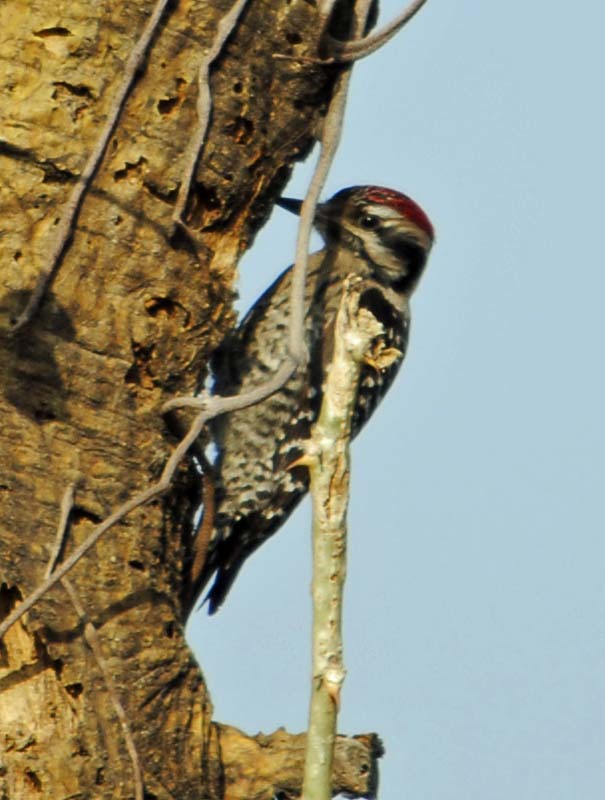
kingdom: Animalia
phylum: Chordata
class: Aves
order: Piciformes
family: Picidae
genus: Dryobates
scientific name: Dryobates scalaris
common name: Ladder-backed woodpecker
